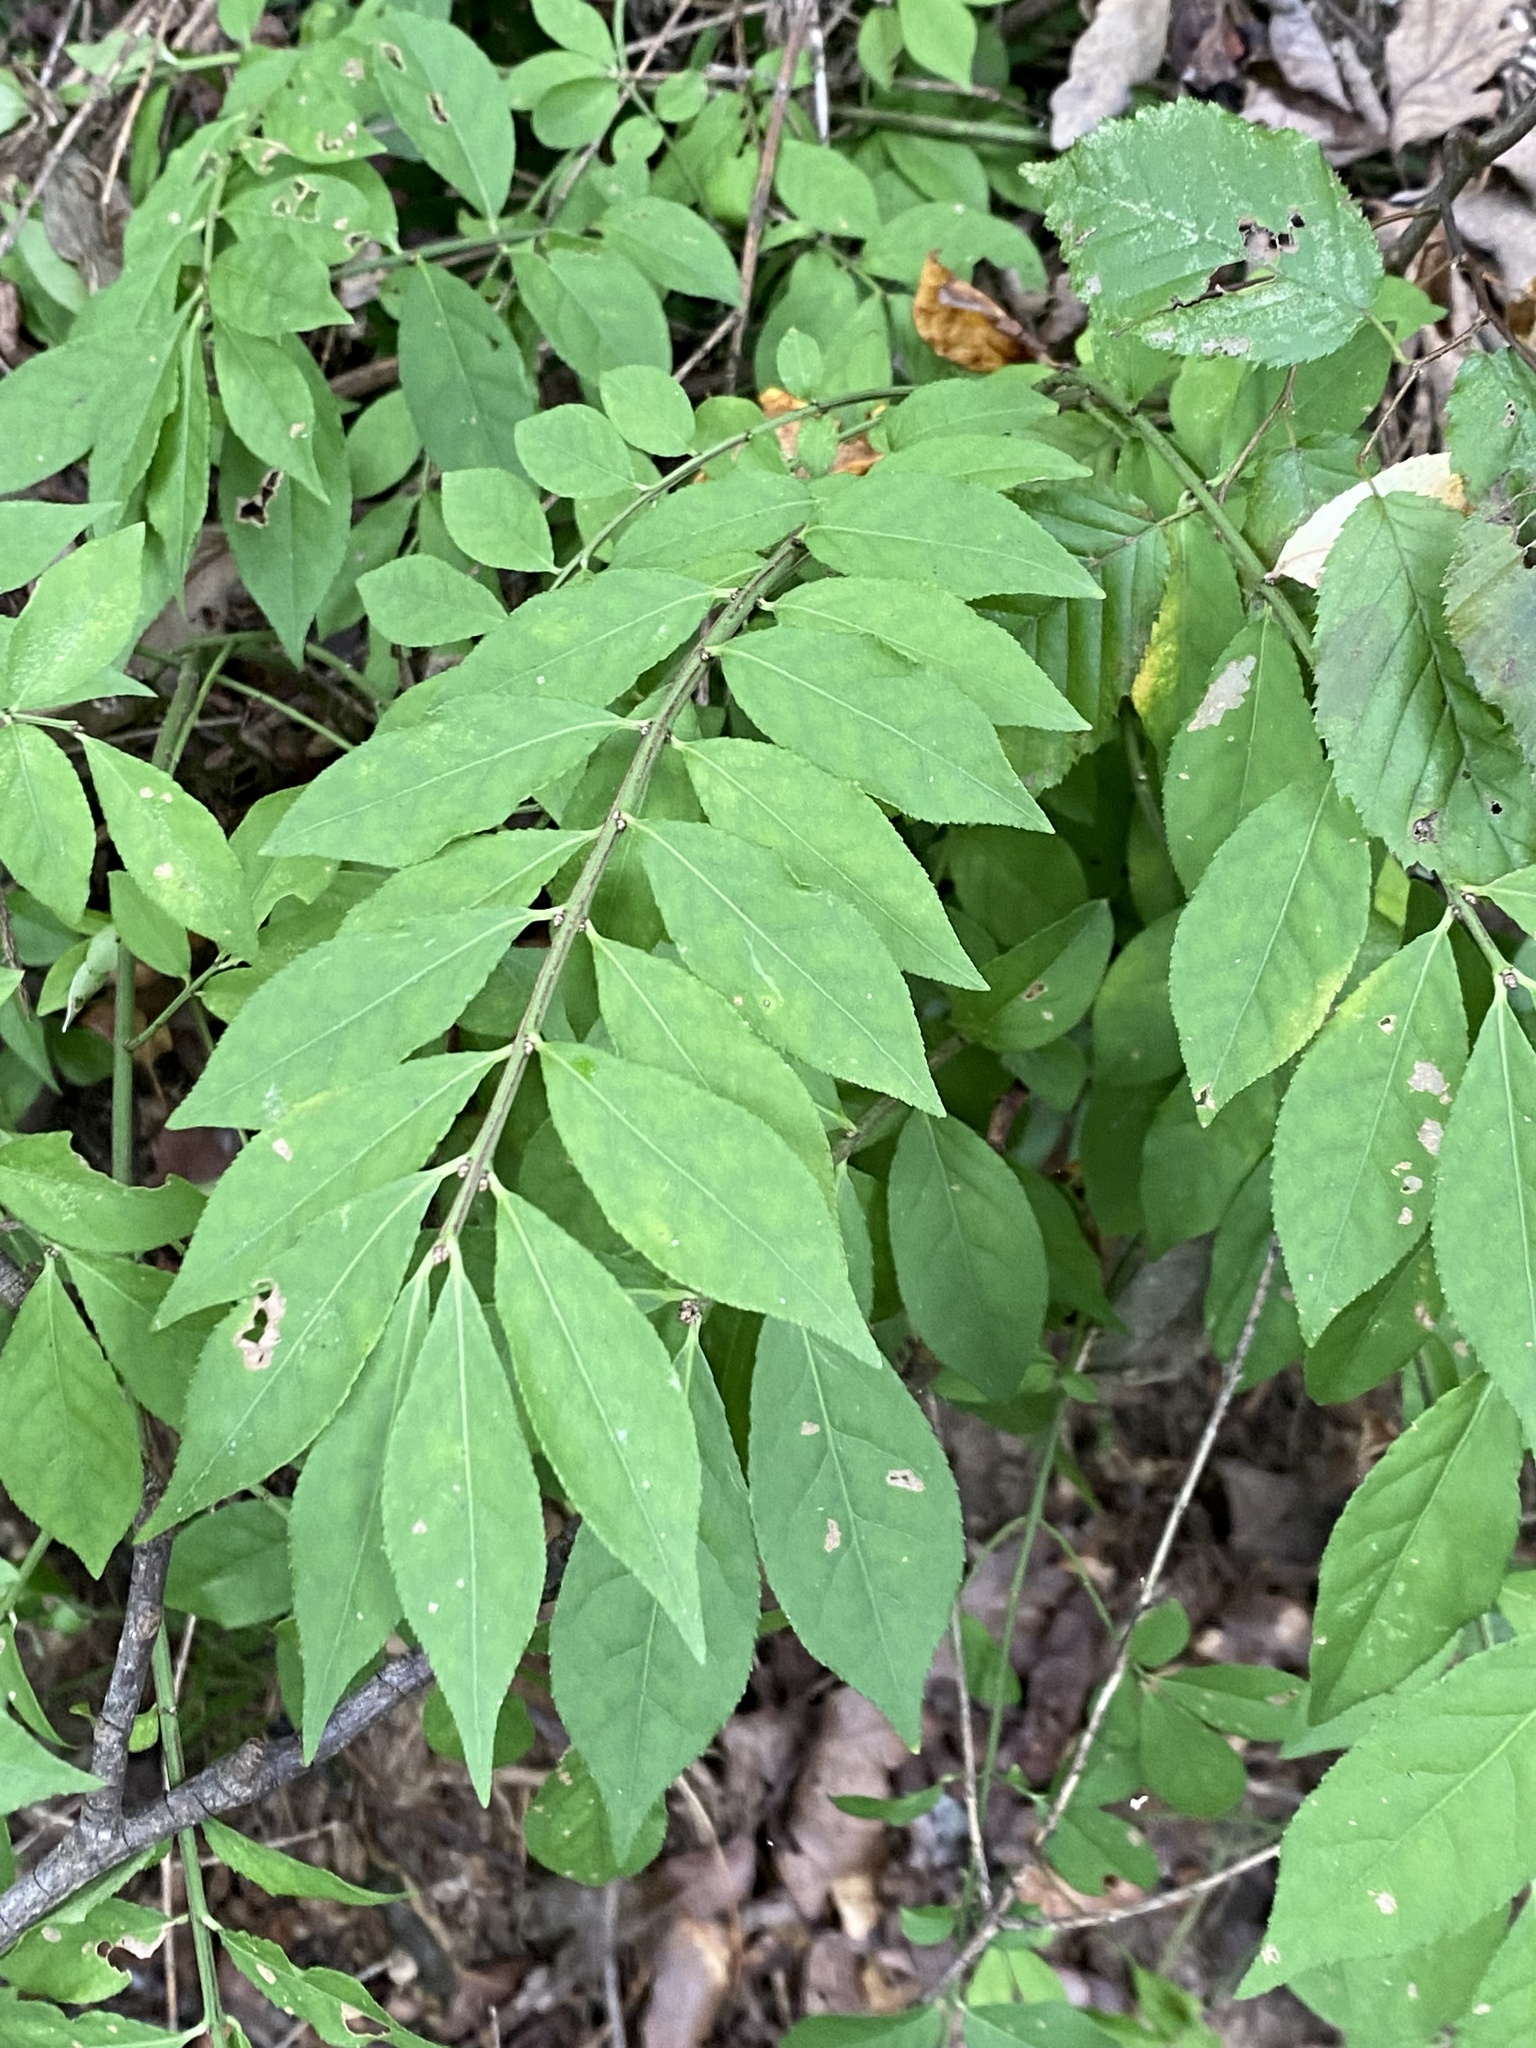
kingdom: Plantae
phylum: Tracheophyta
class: Magnoliopsida
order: Celastrales
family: Celastraceae
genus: Euonymus
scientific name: Euonymus alatus
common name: Winged euonymus
